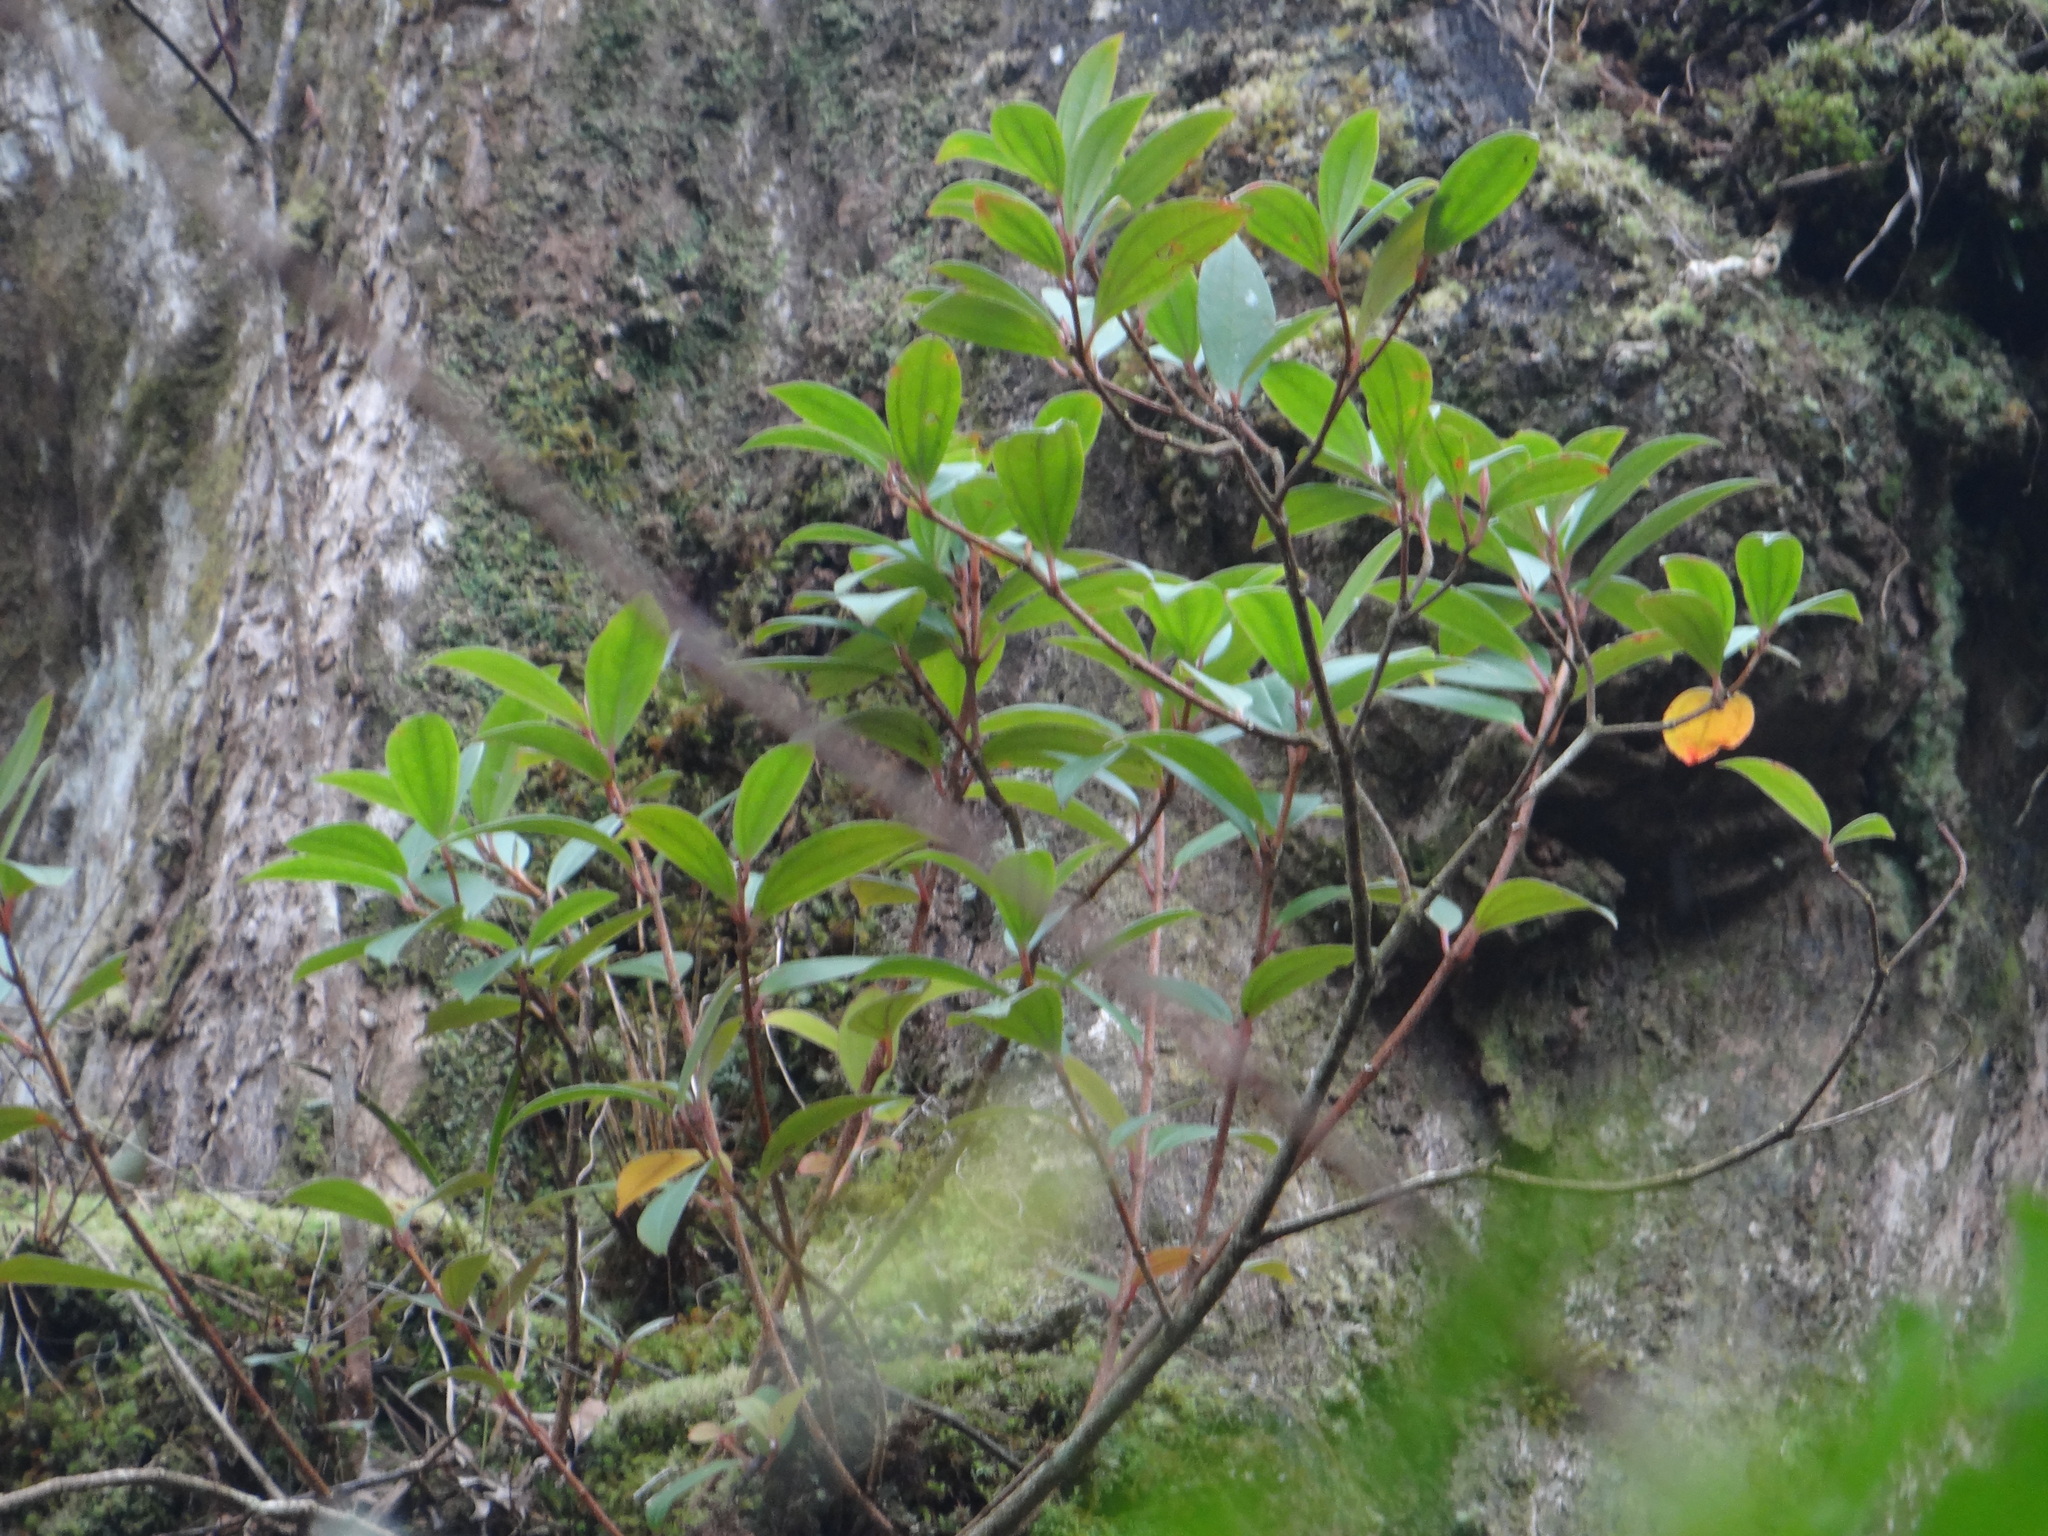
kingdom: Plantae
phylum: Tracheophyta
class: Magnoliopsida
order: Myrtales
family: Melastomataceae
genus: Medinilla
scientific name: Medinilla fengii
